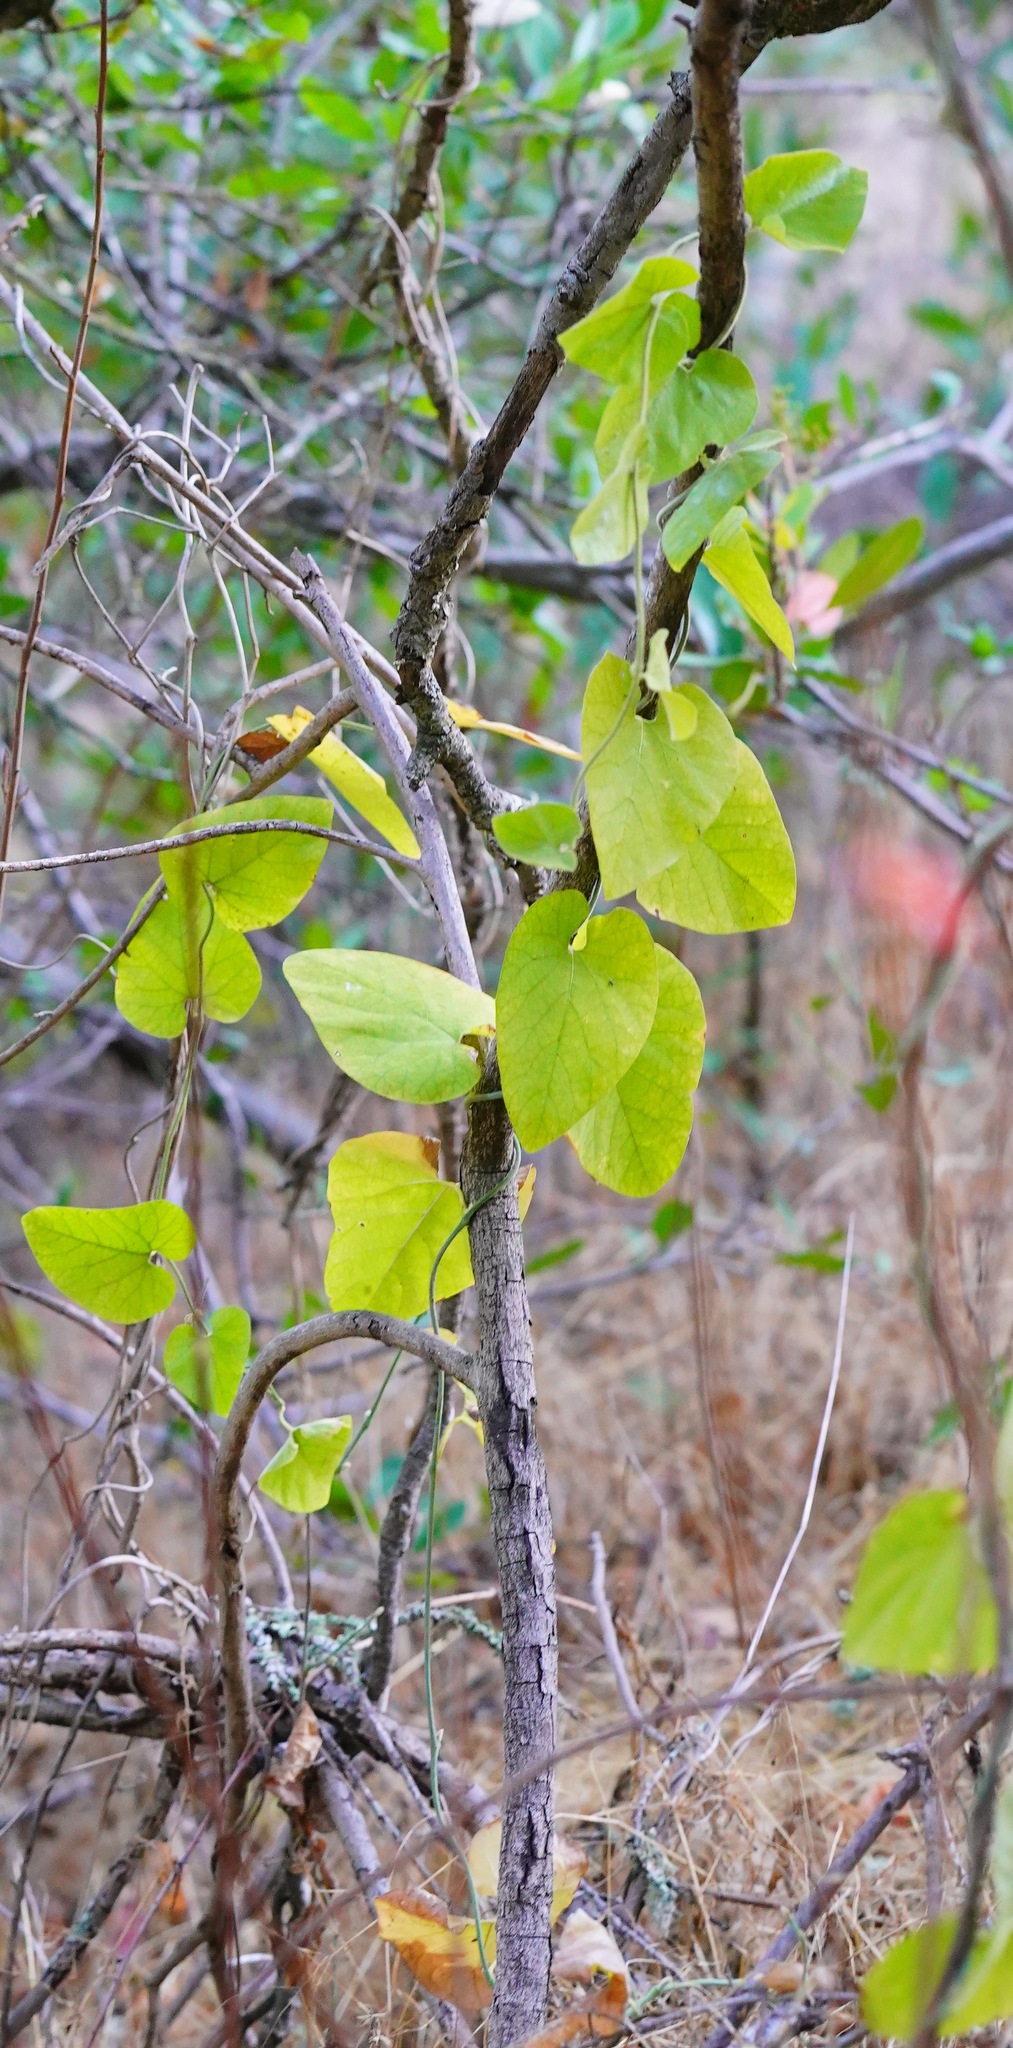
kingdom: Plantae
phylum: Tracheophyta
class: Magnoliopsida
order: Piperales
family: Aristolochiaceae
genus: Isotrema
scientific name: Isotrema californicum
